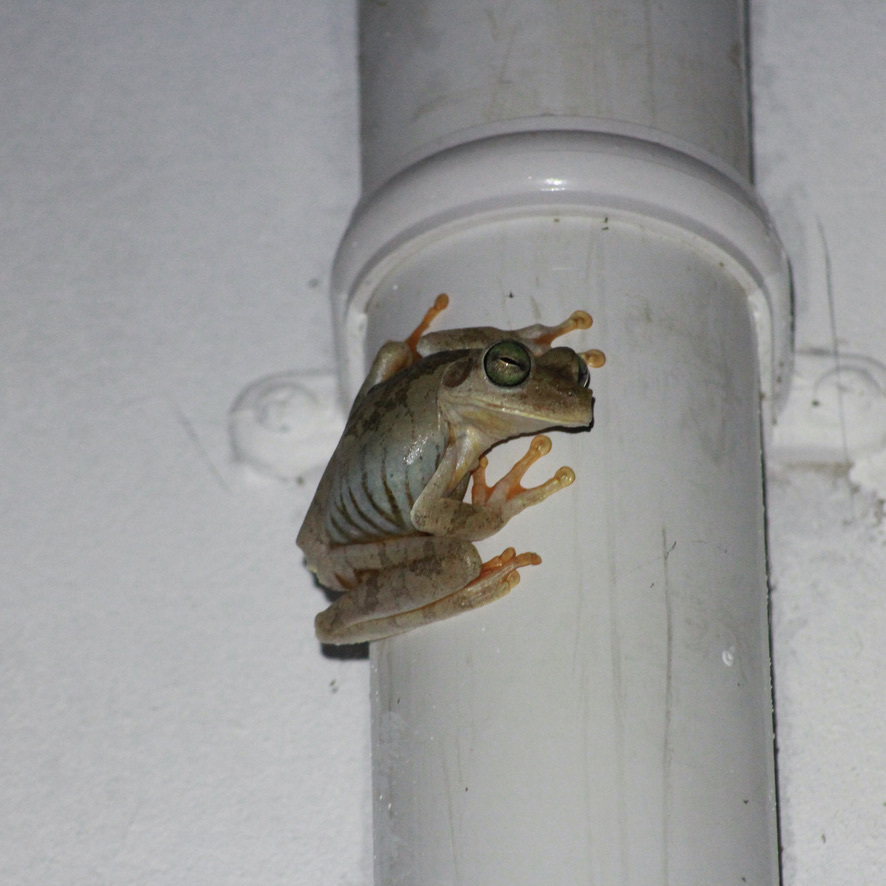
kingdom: Animalia
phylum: Chordata
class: Amphibia
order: Anura
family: Hylidae
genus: Boana
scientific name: Boana platanera
